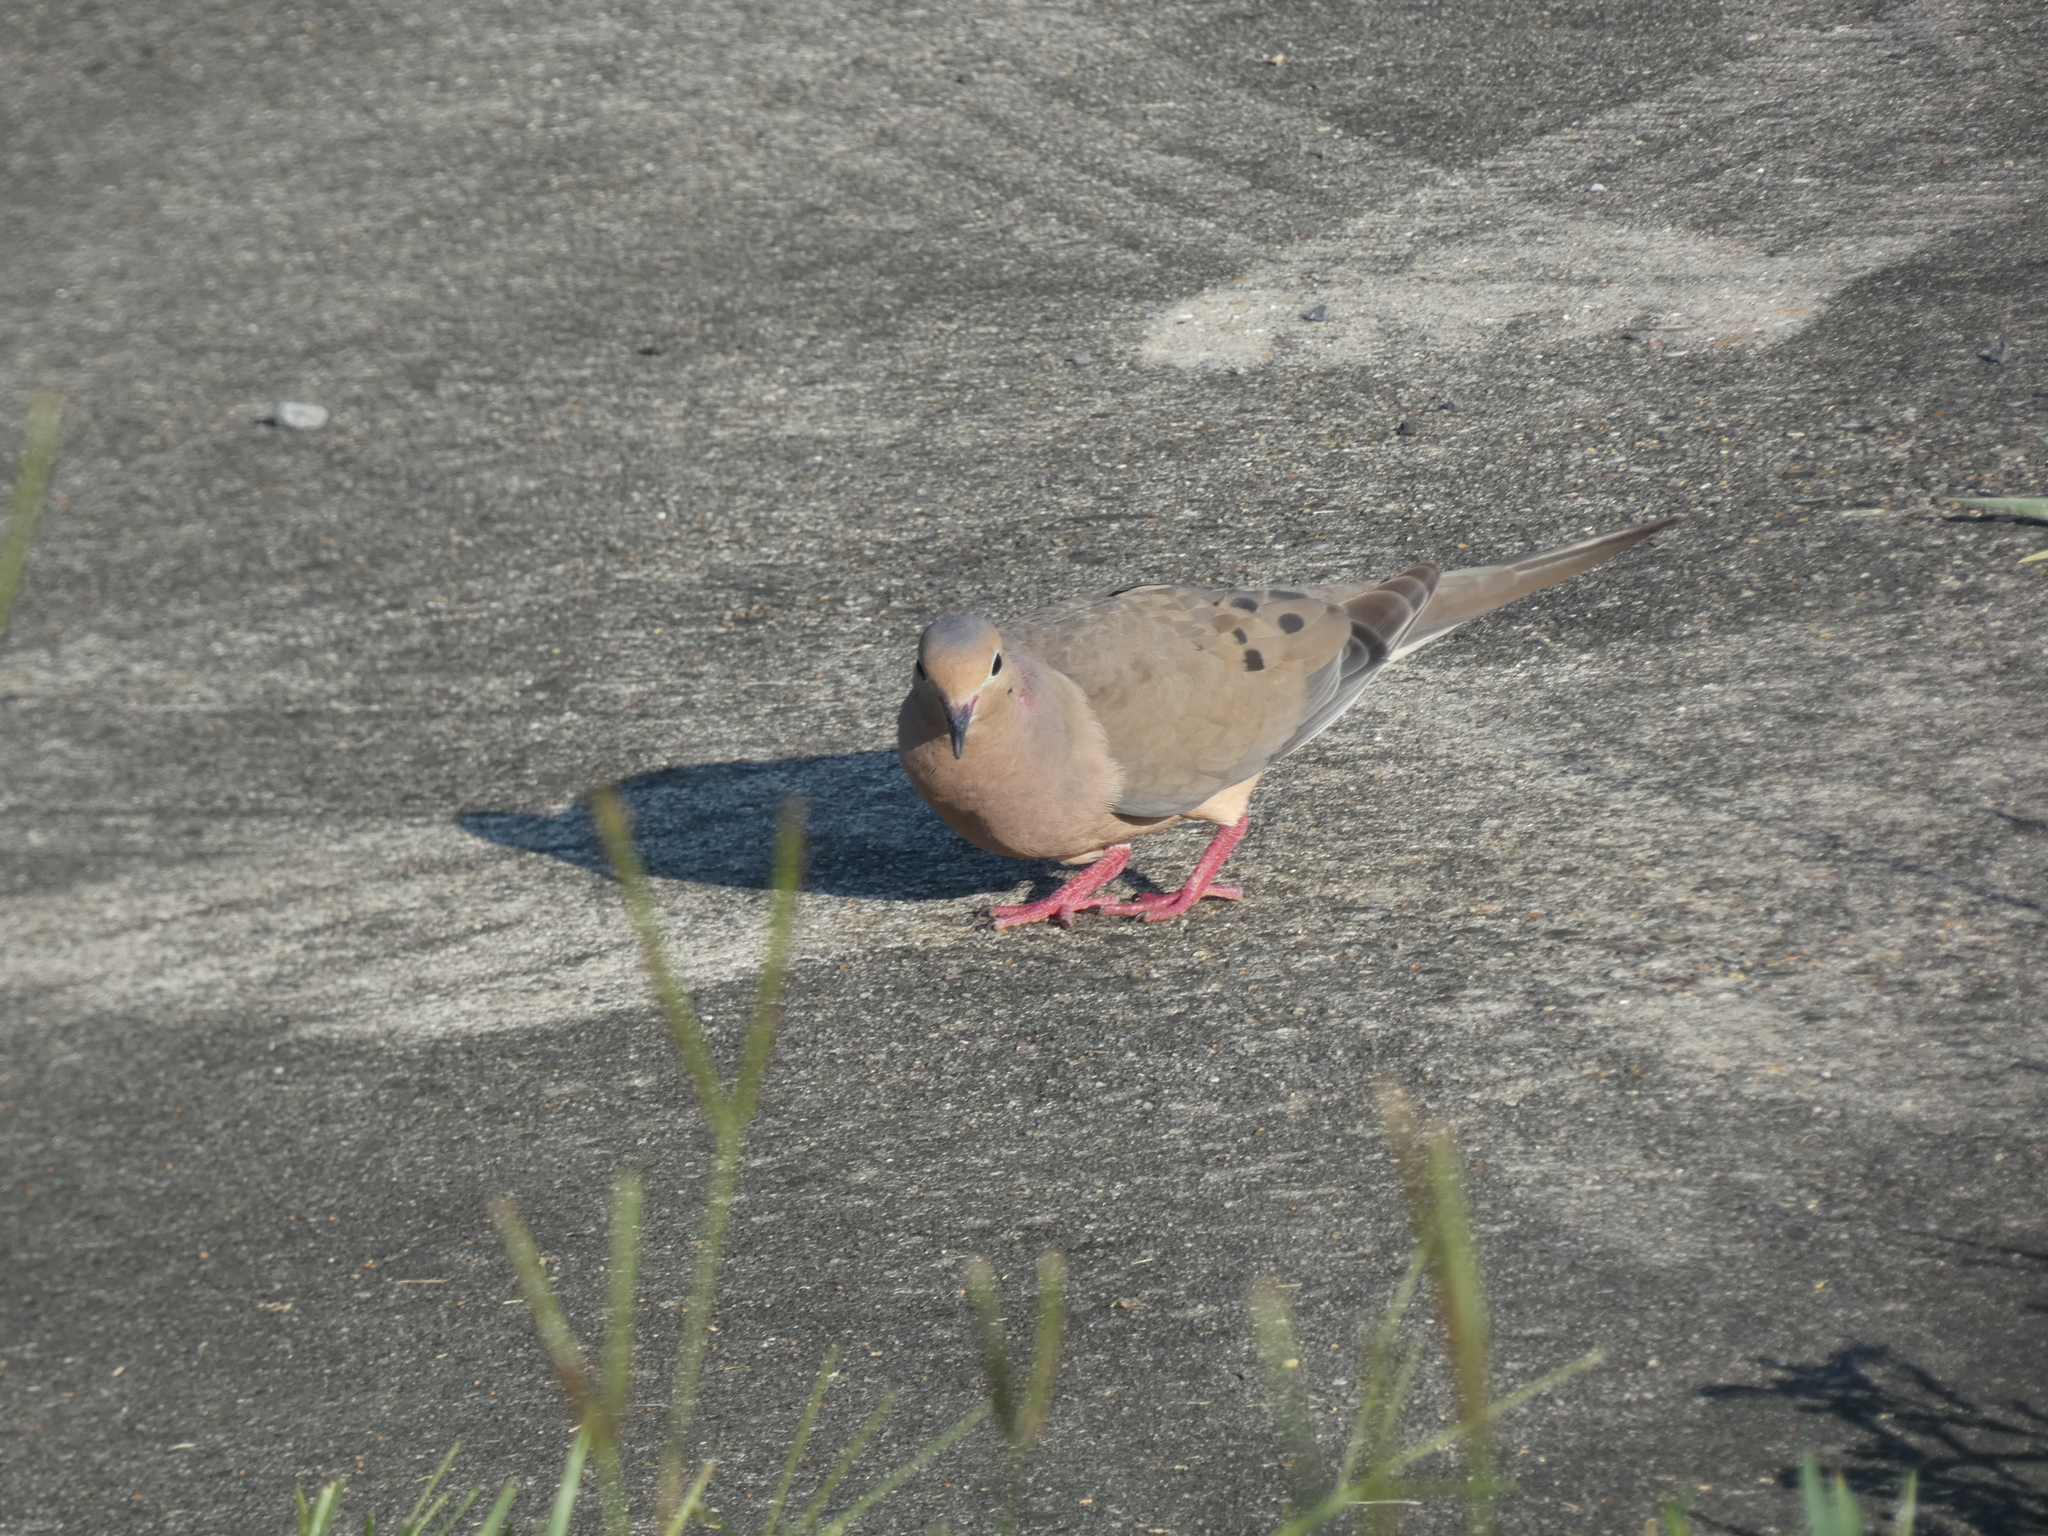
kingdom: Animalia
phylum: Chordata
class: Aves
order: Columbiformes
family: Columbidae
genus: Zenaida
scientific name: Zenaida macroura
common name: Mourning dove
